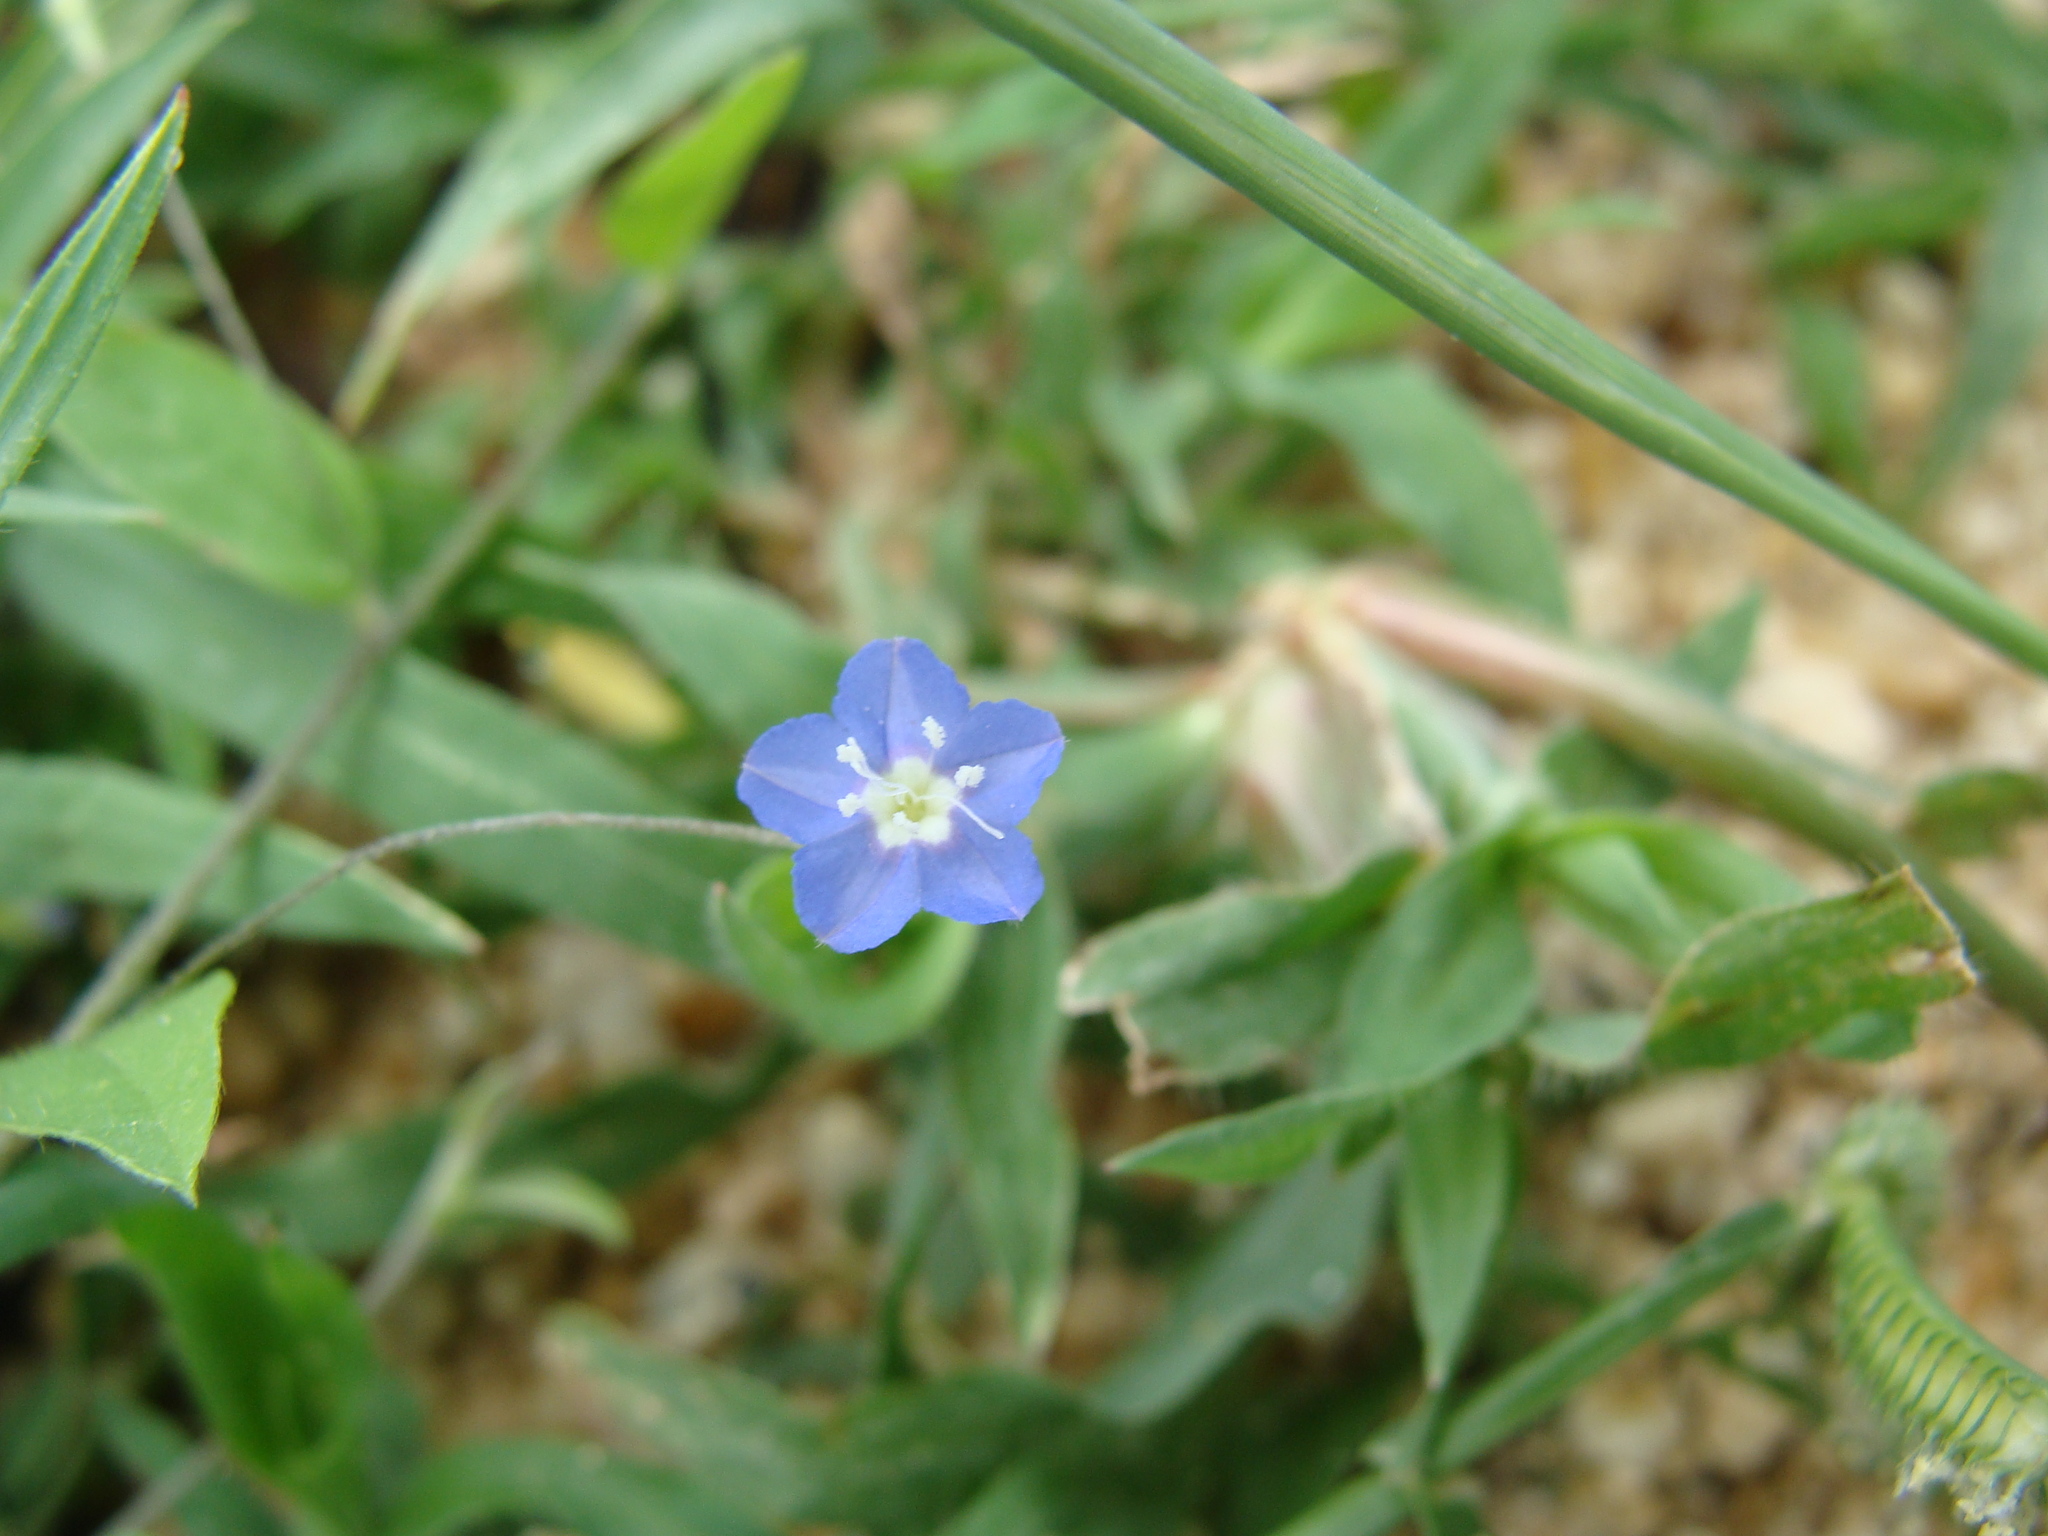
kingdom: Plantae
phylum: Tracheophyta
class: Magnoliopsida
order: Solanales
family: Convolvulaceae
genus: Evolvulus
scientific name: Evolvulus alsinoides
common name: Slender dwarf morning-glory
